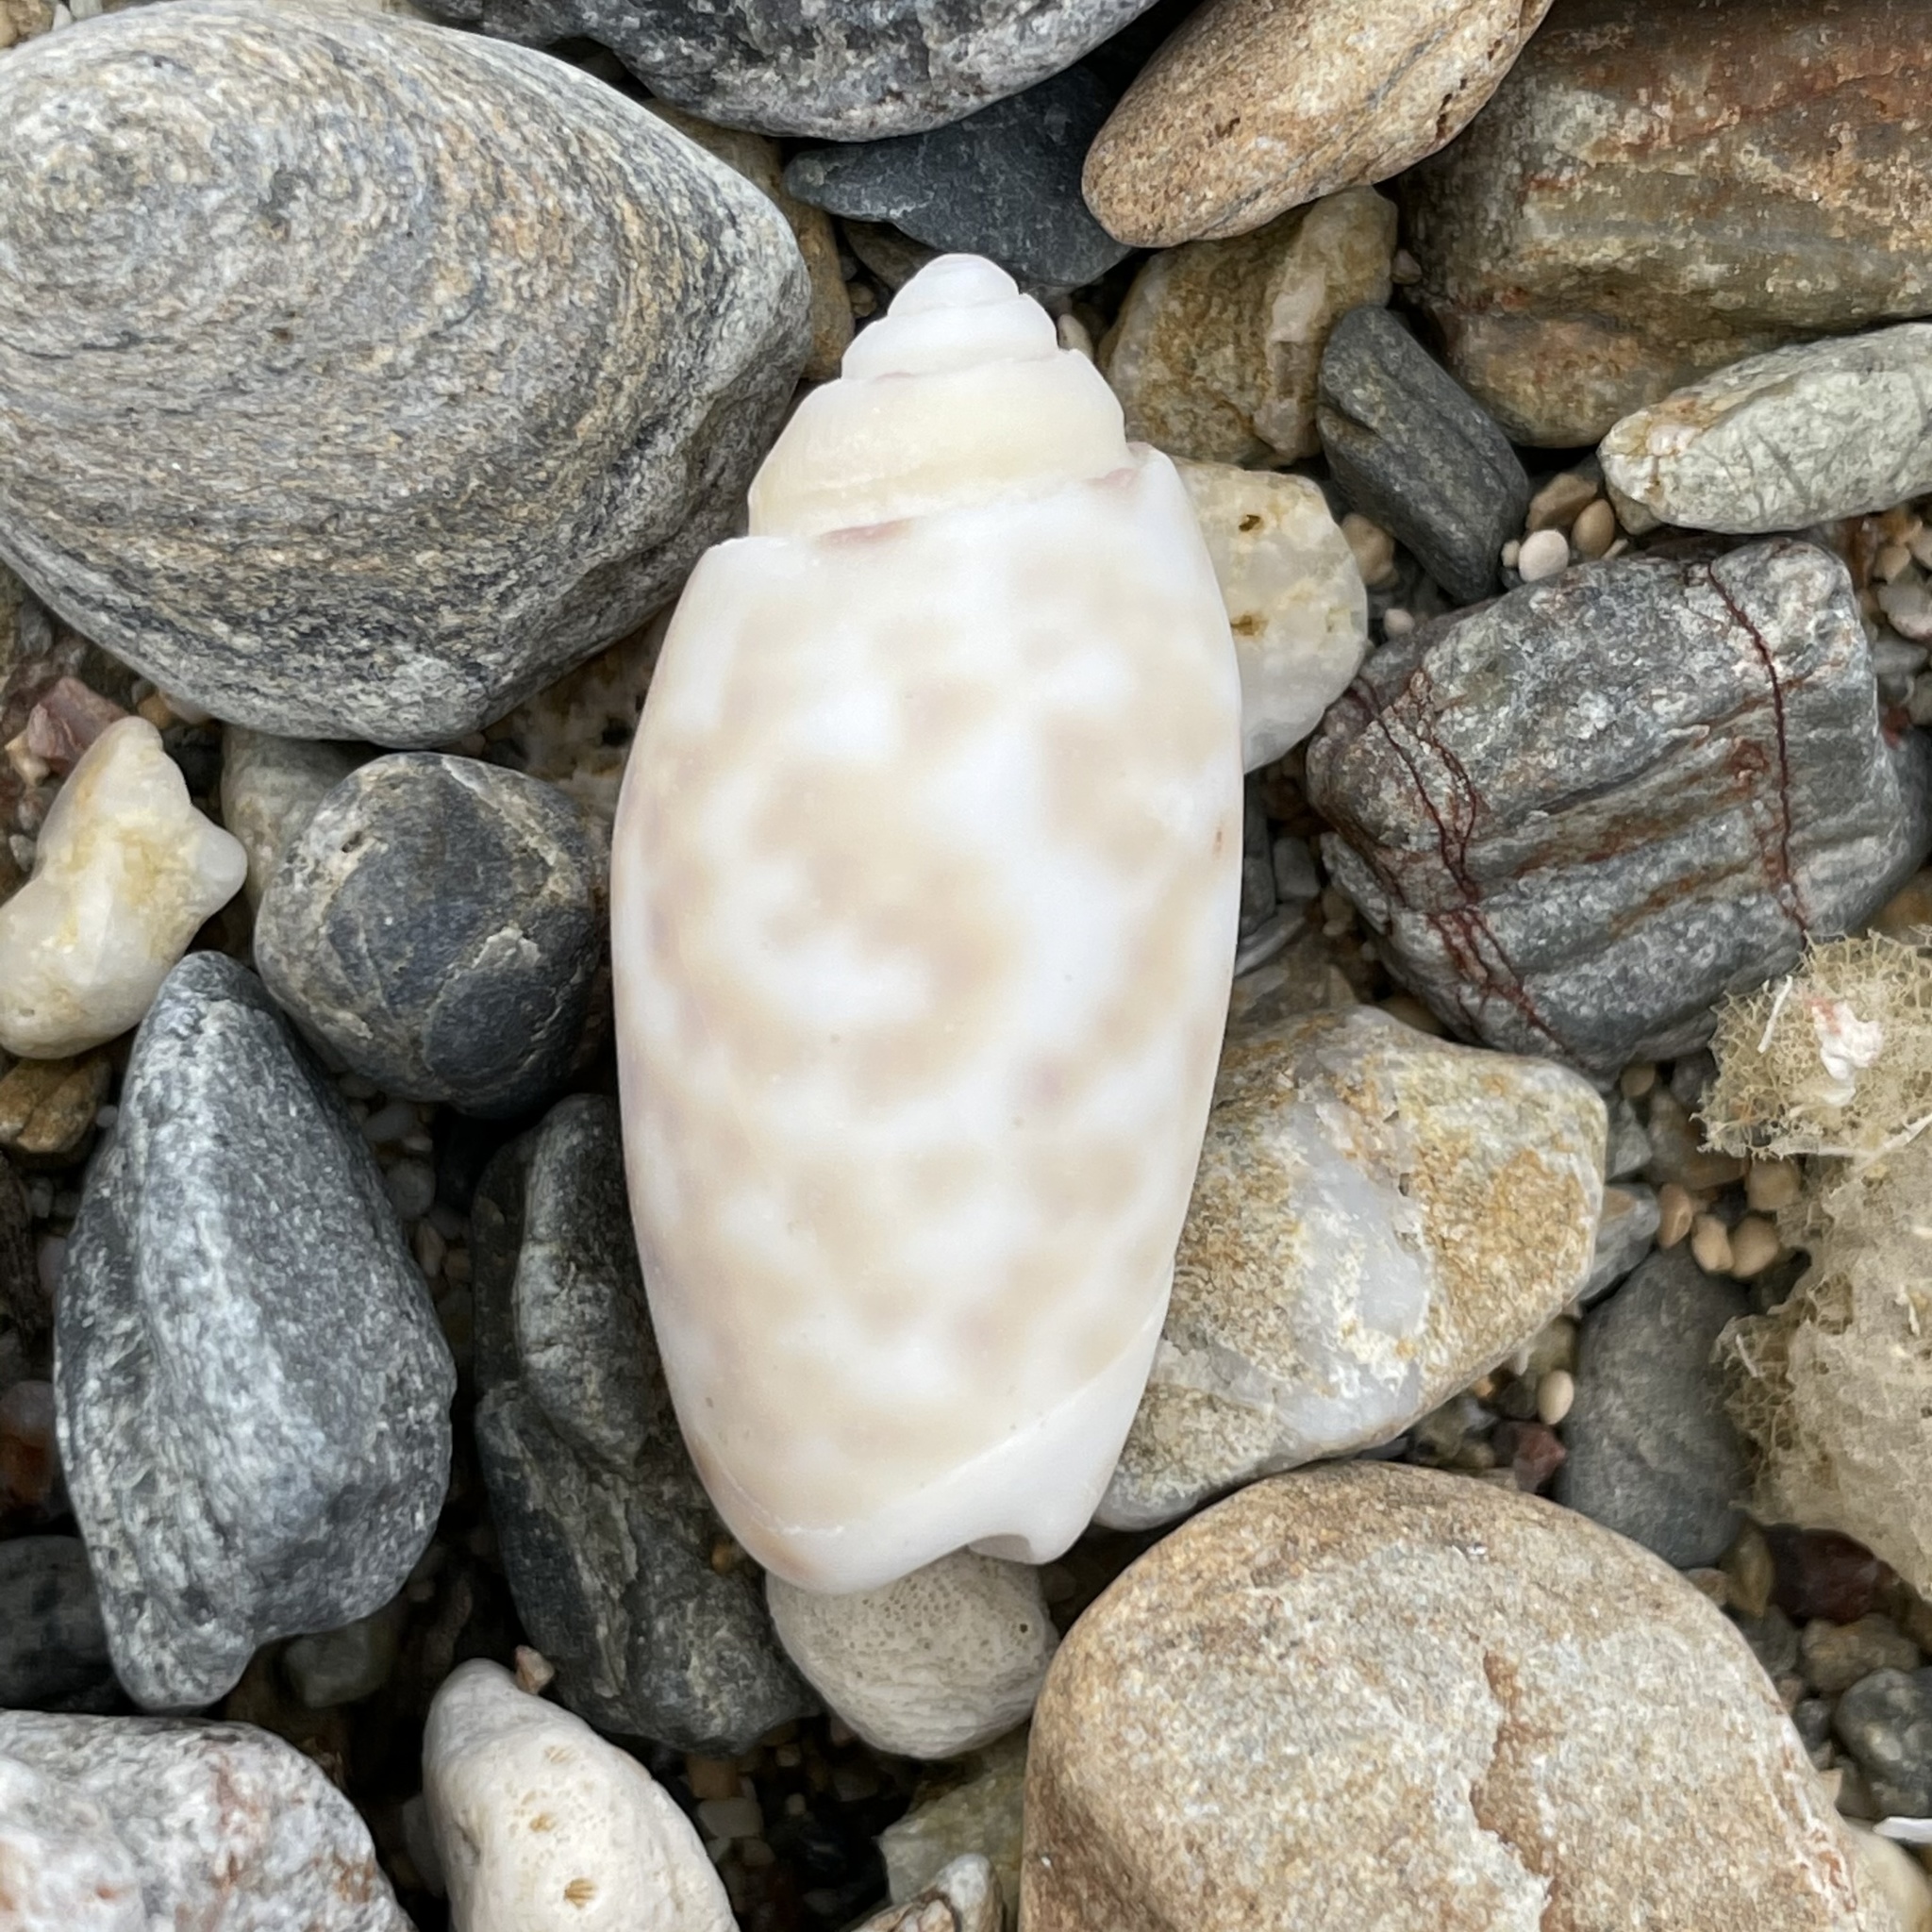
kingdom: Animalia
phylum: Mollusca
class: Gastropoda
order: Neogastropoda
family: Olividae
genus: Oliva
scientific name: Oliva amethystina
